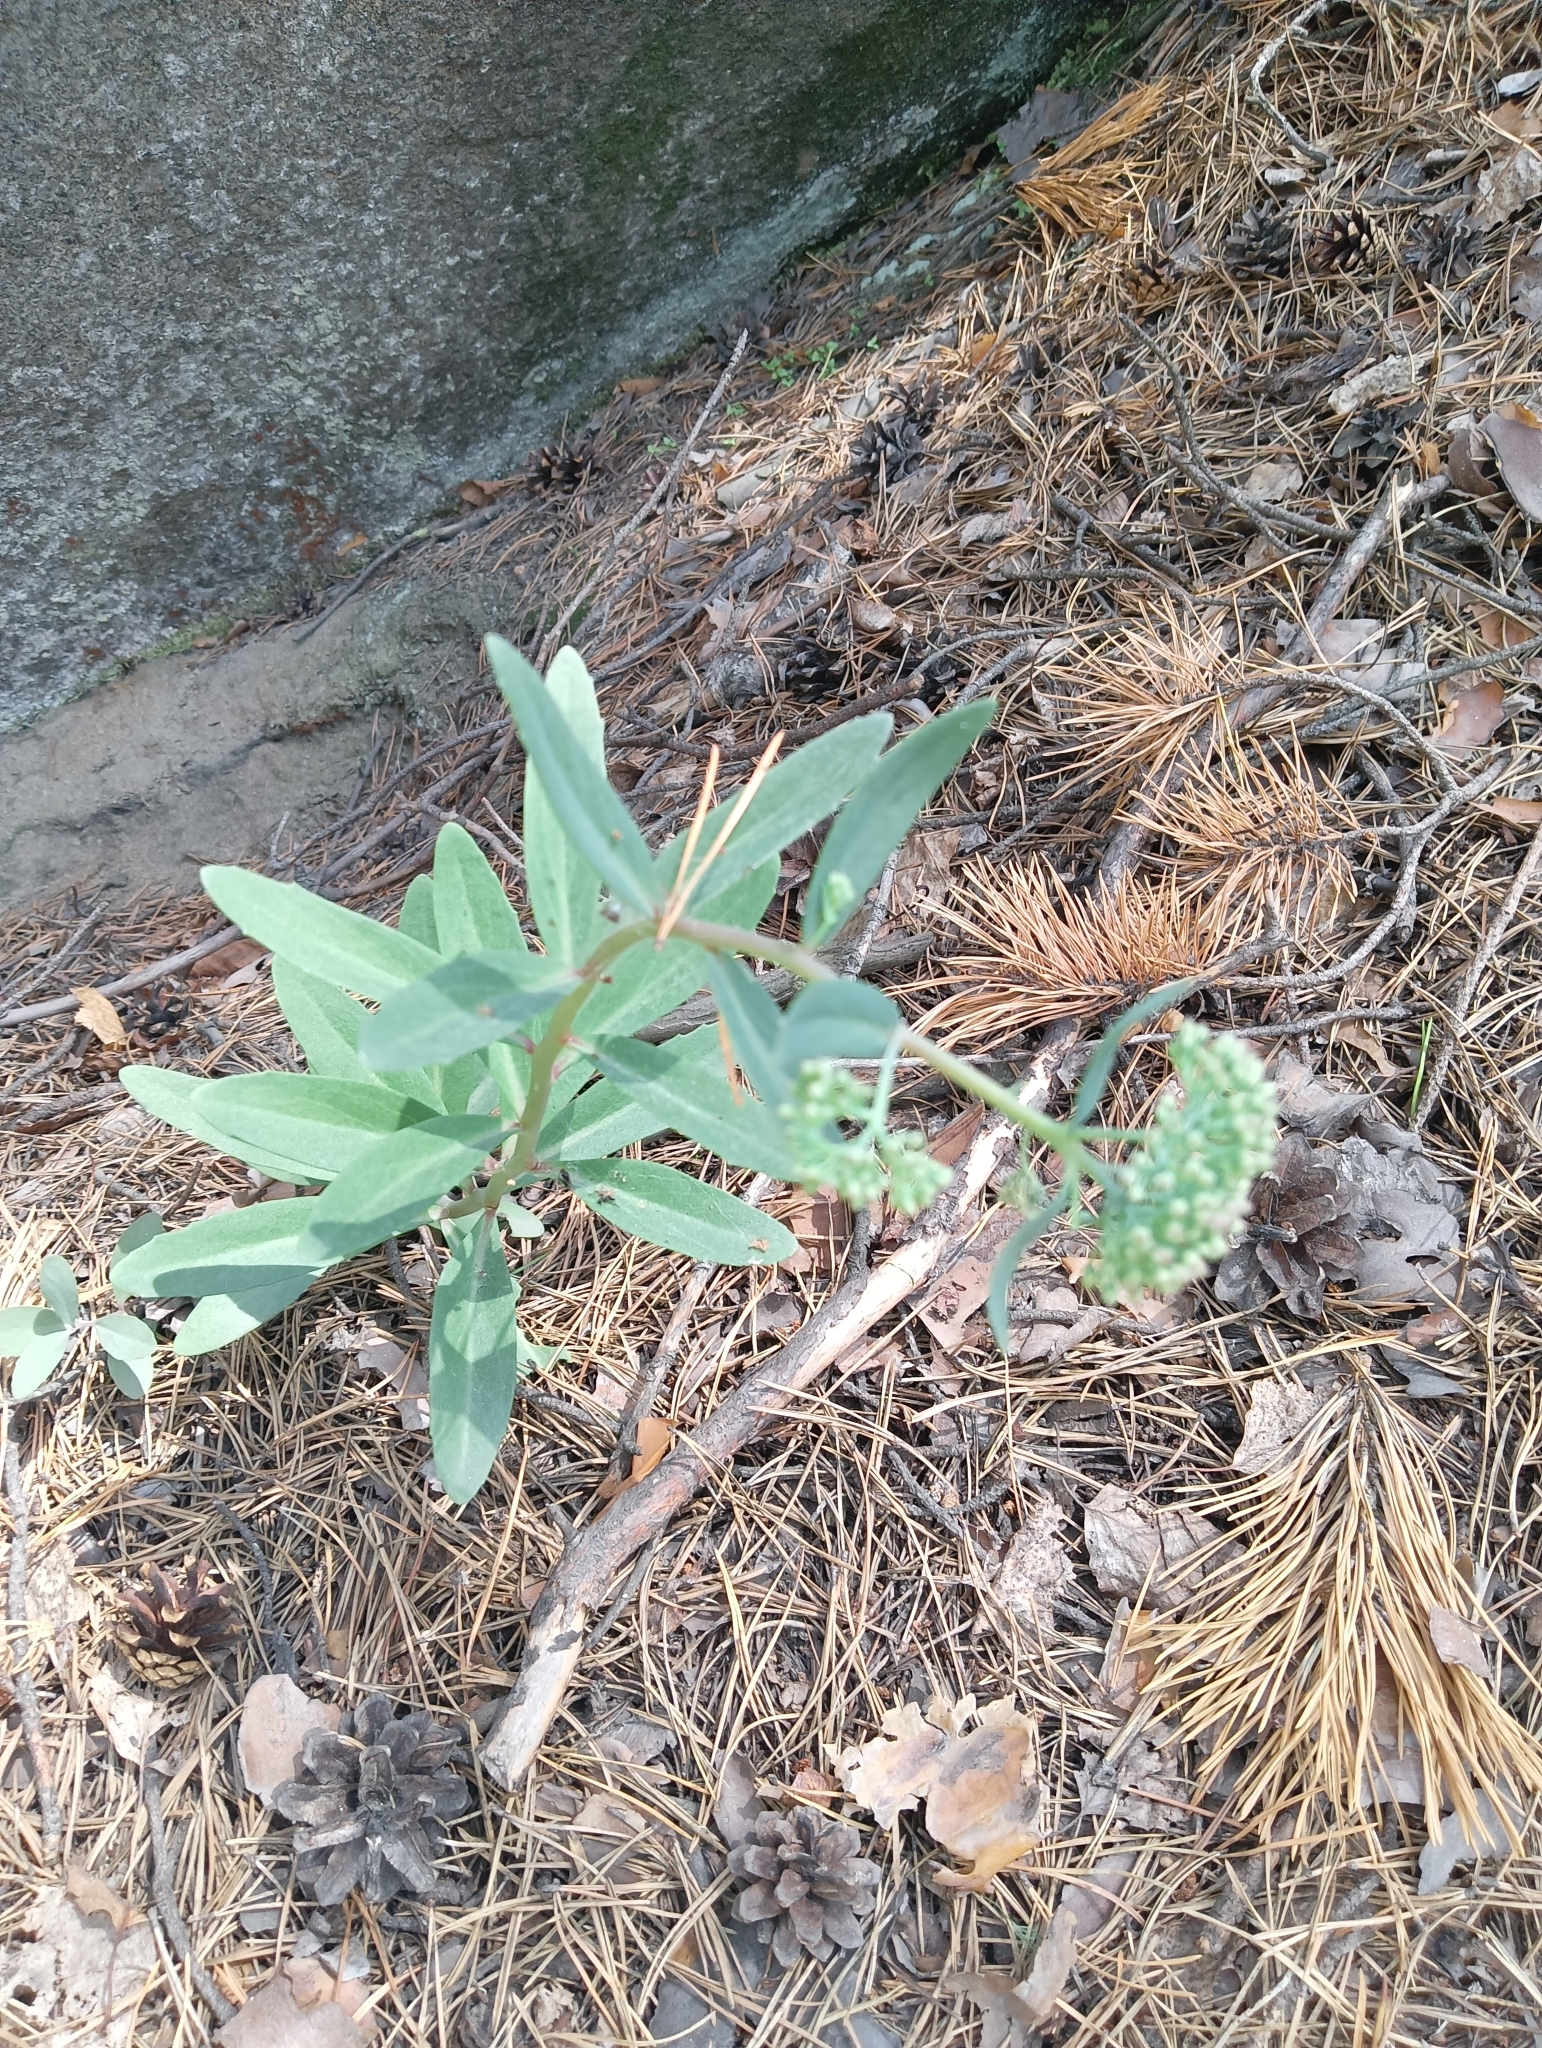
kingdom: Plantae
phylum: Tracheophyta
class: Magnoliopsida
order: Saxifragales
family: Crassulaceae
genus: Hylotelephium
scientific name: Hylotelephium telephium
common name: Live-forever
